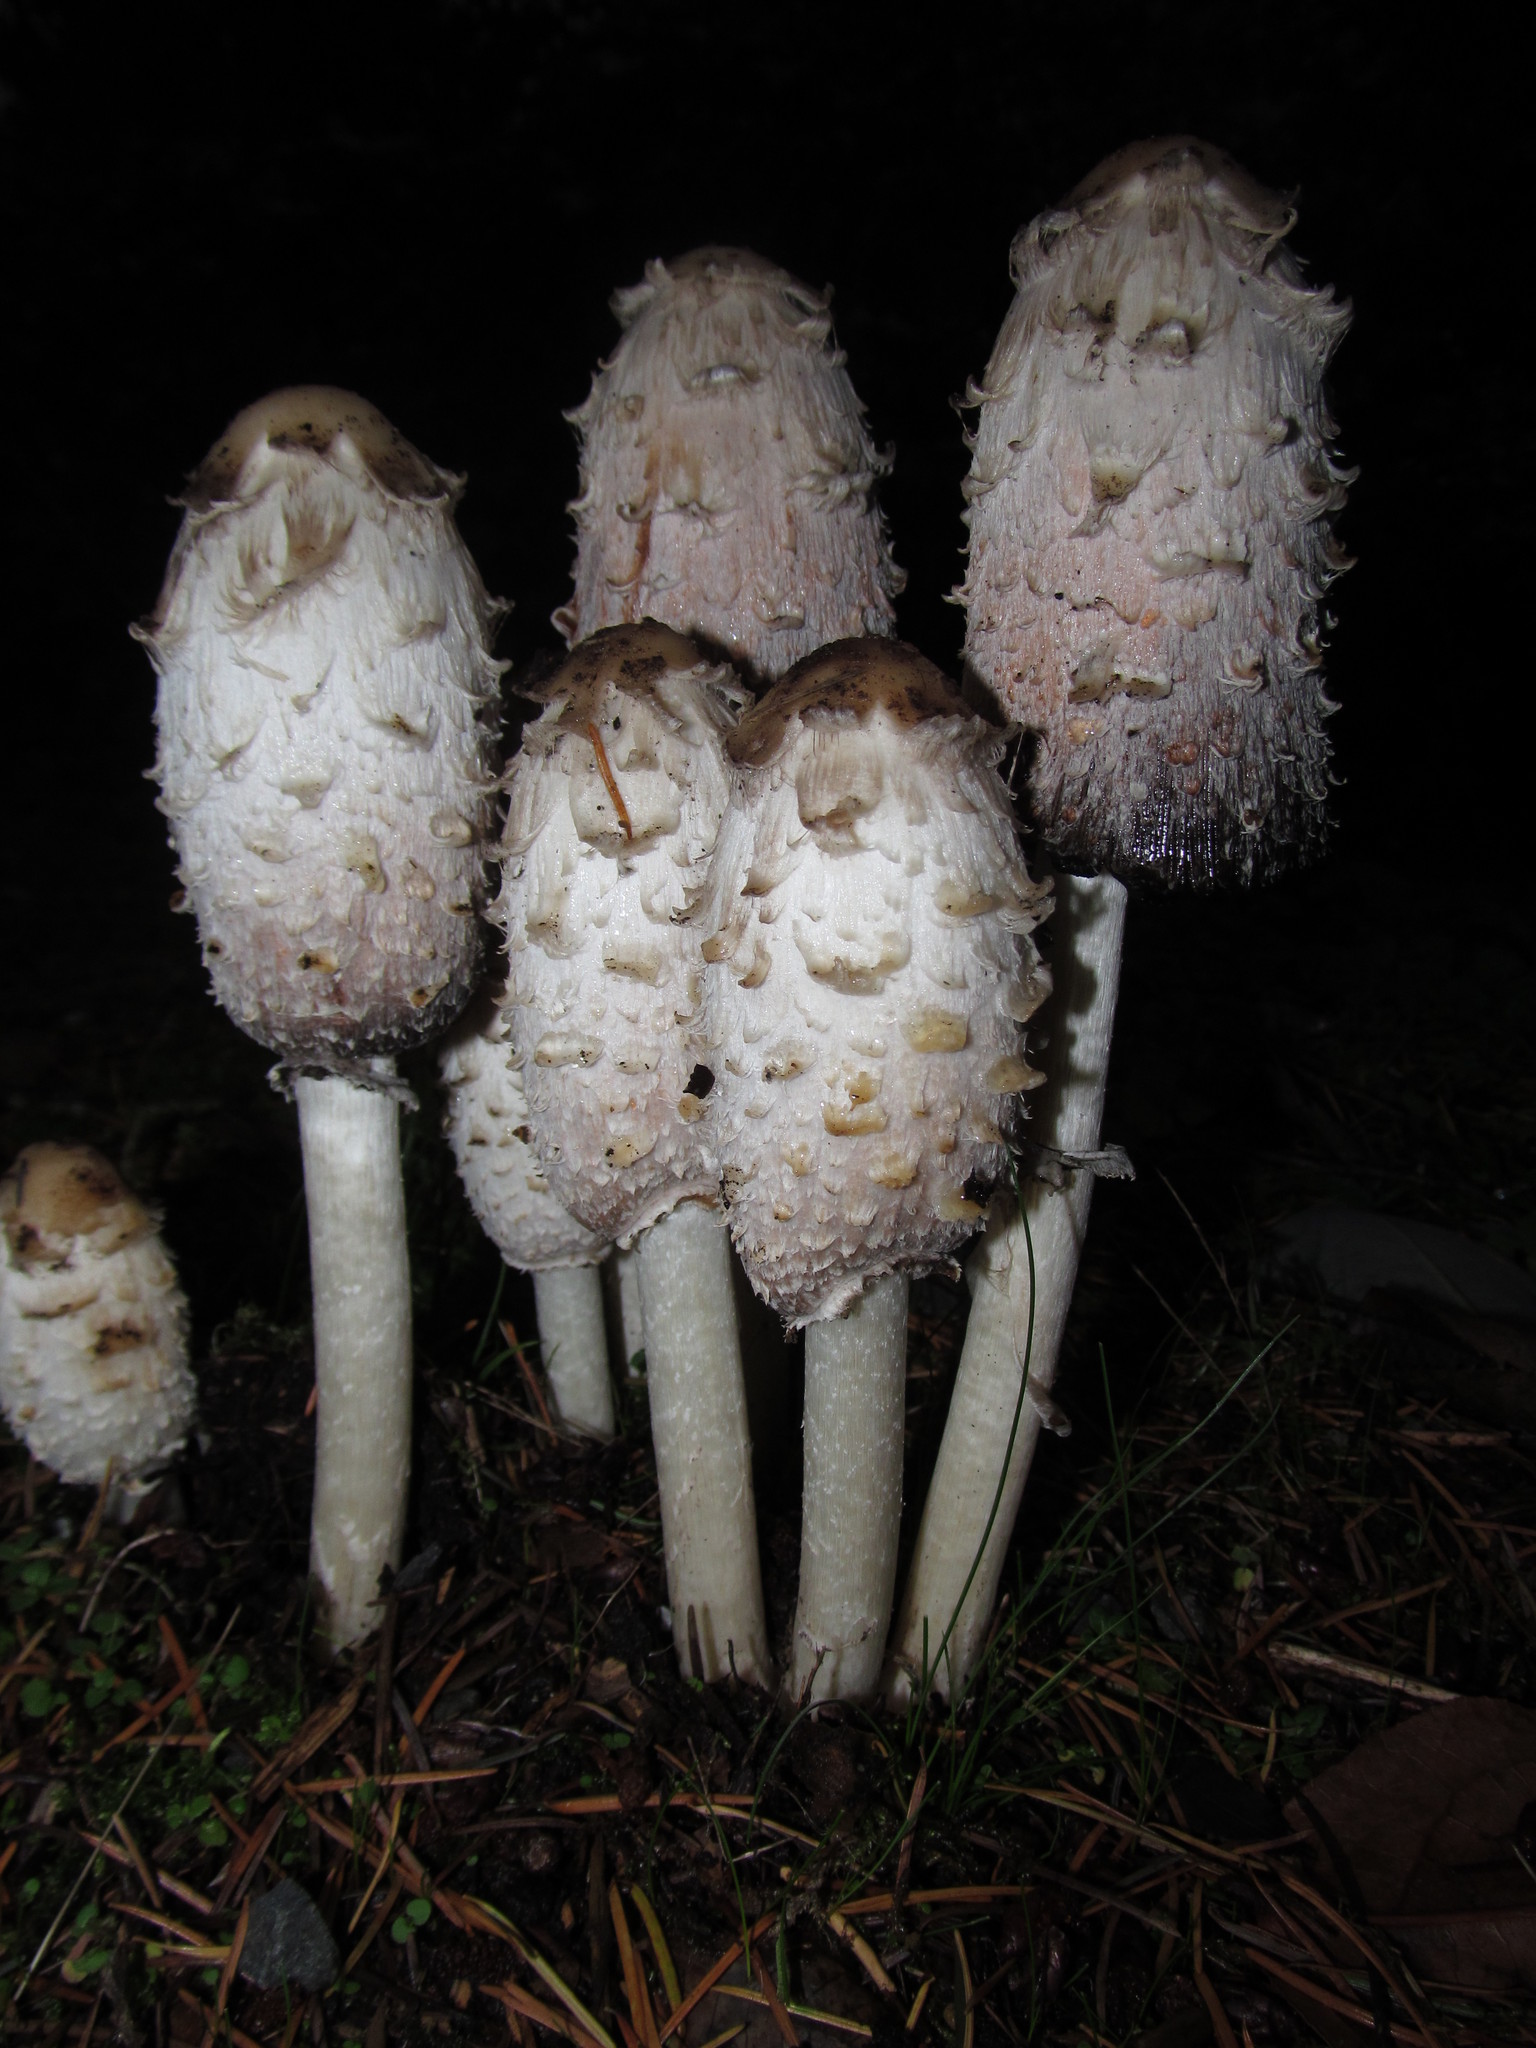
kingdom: Fungi
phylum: Basidiomycota
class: Agaricomycetes
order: Agaricales
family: Agaricaceae
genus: Coprinus
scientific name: Coprinus comatus
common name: Lawyer's wig
